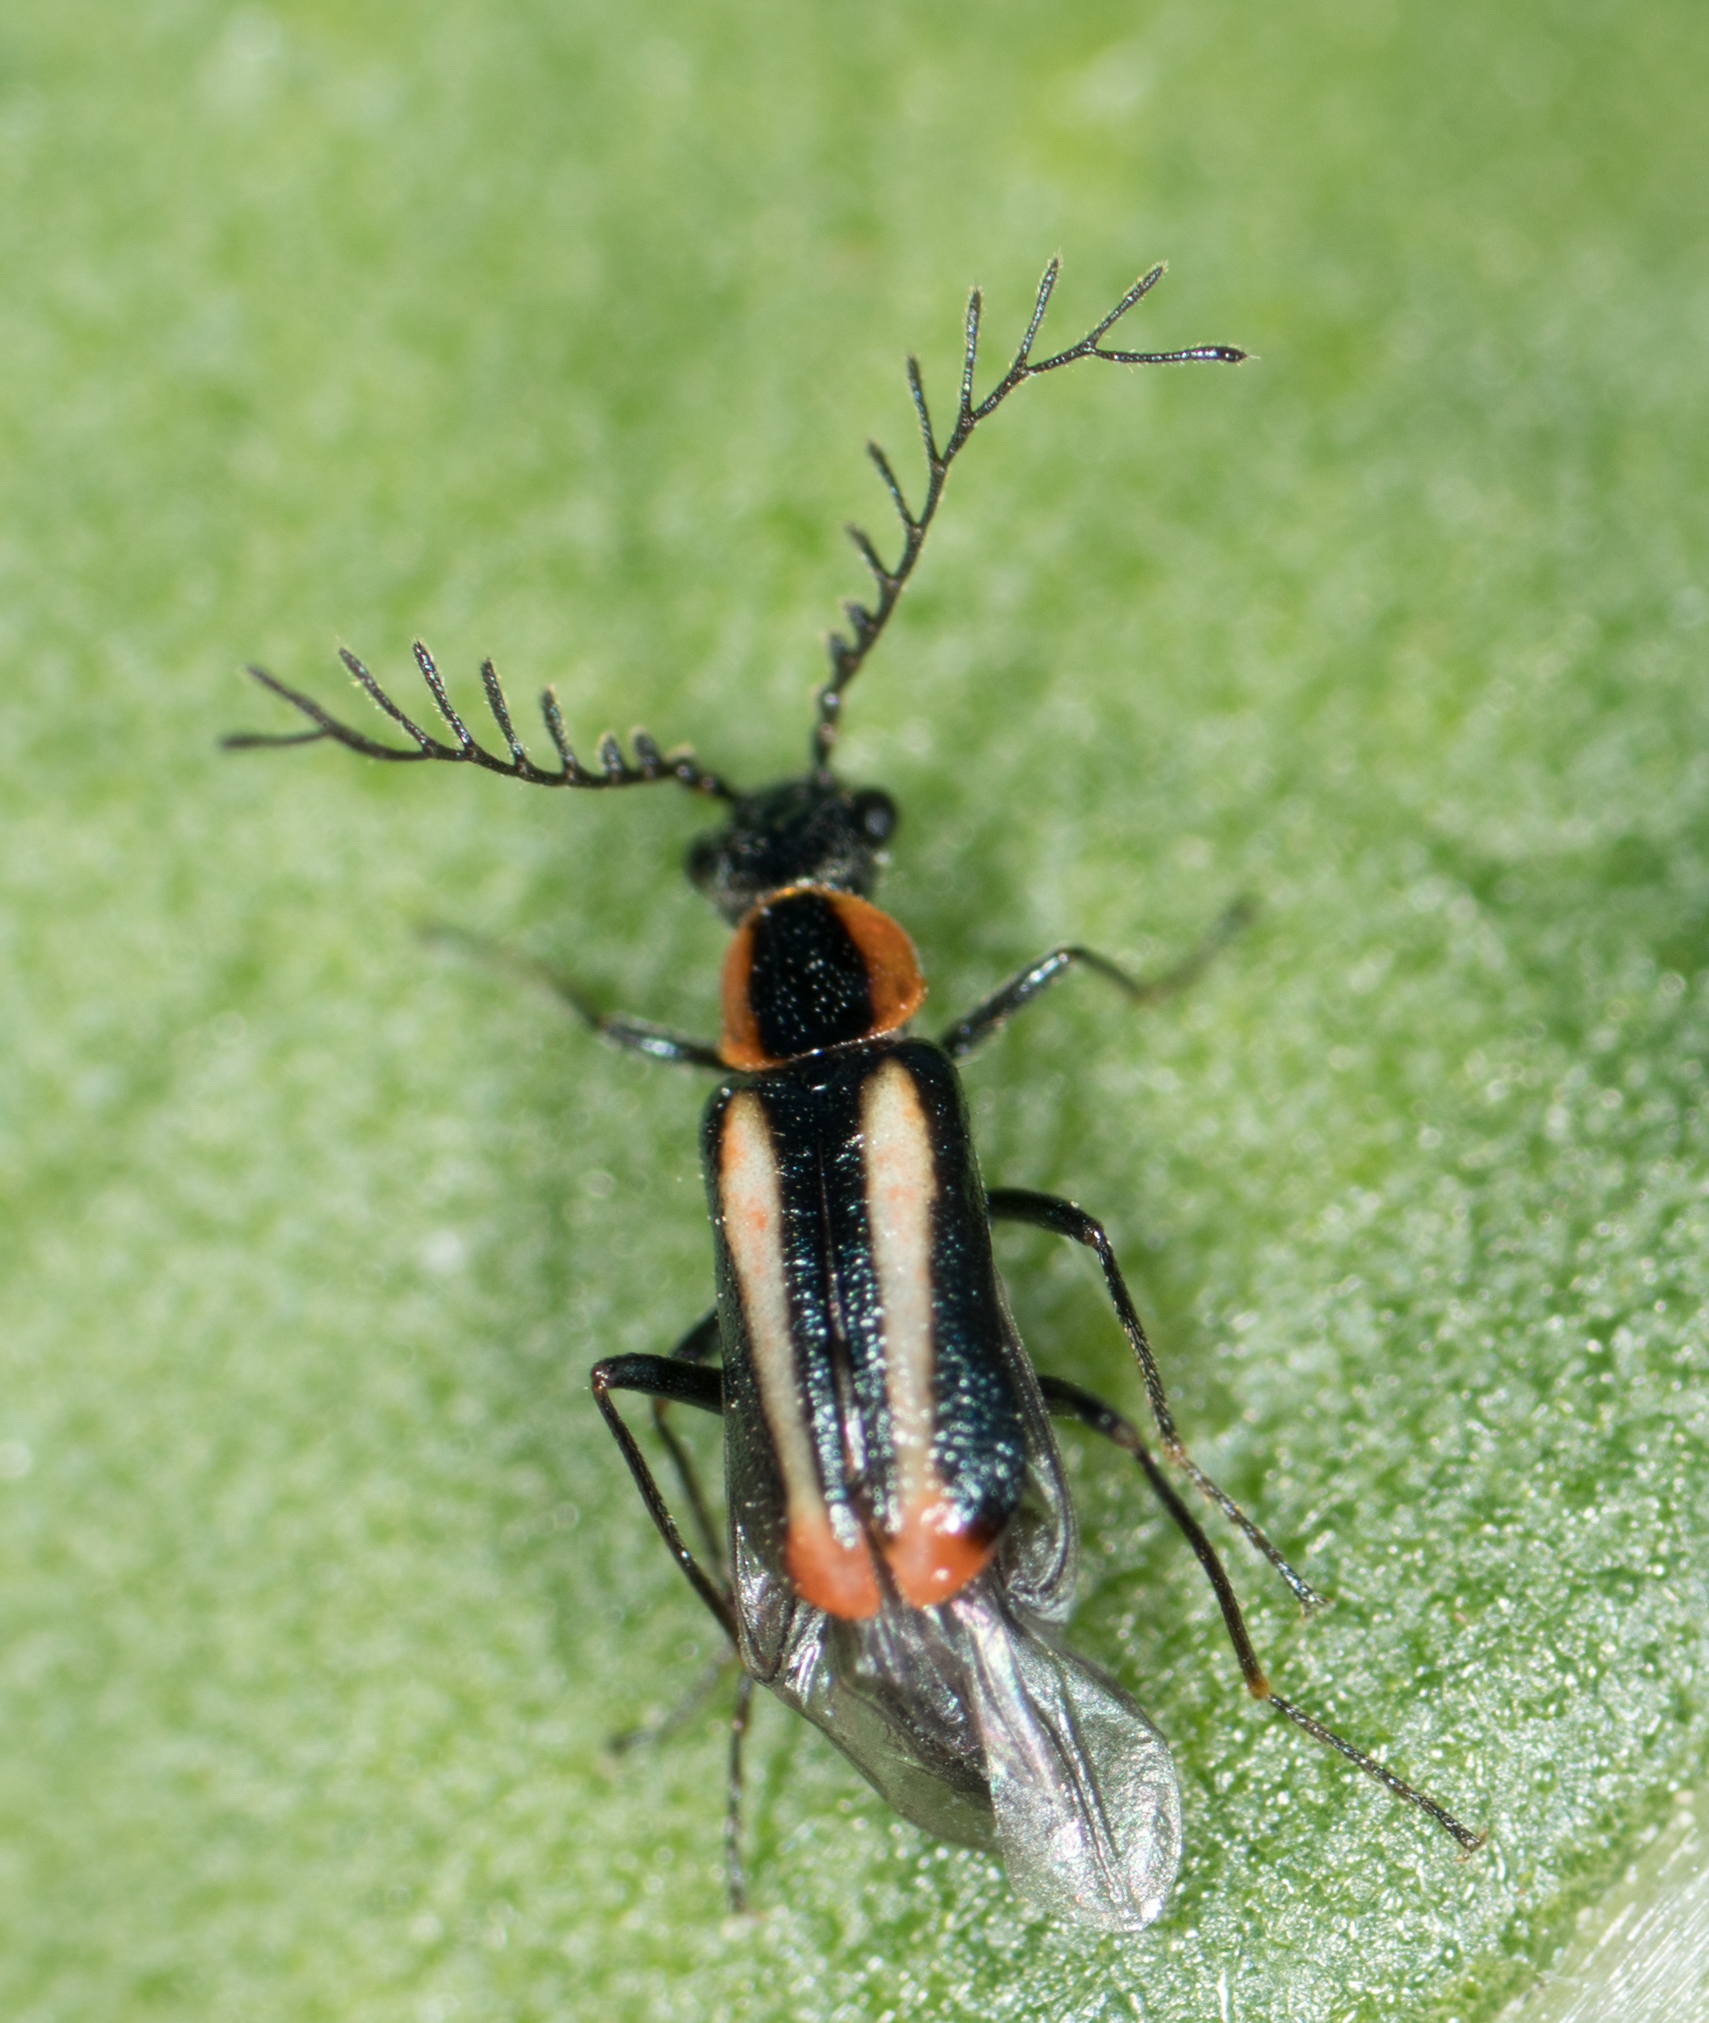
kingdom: Animalia
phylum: Arthropoda
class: Insecta
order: Coleoptera
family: Melyridae
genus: Malachius
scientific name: Malachius mixtus
